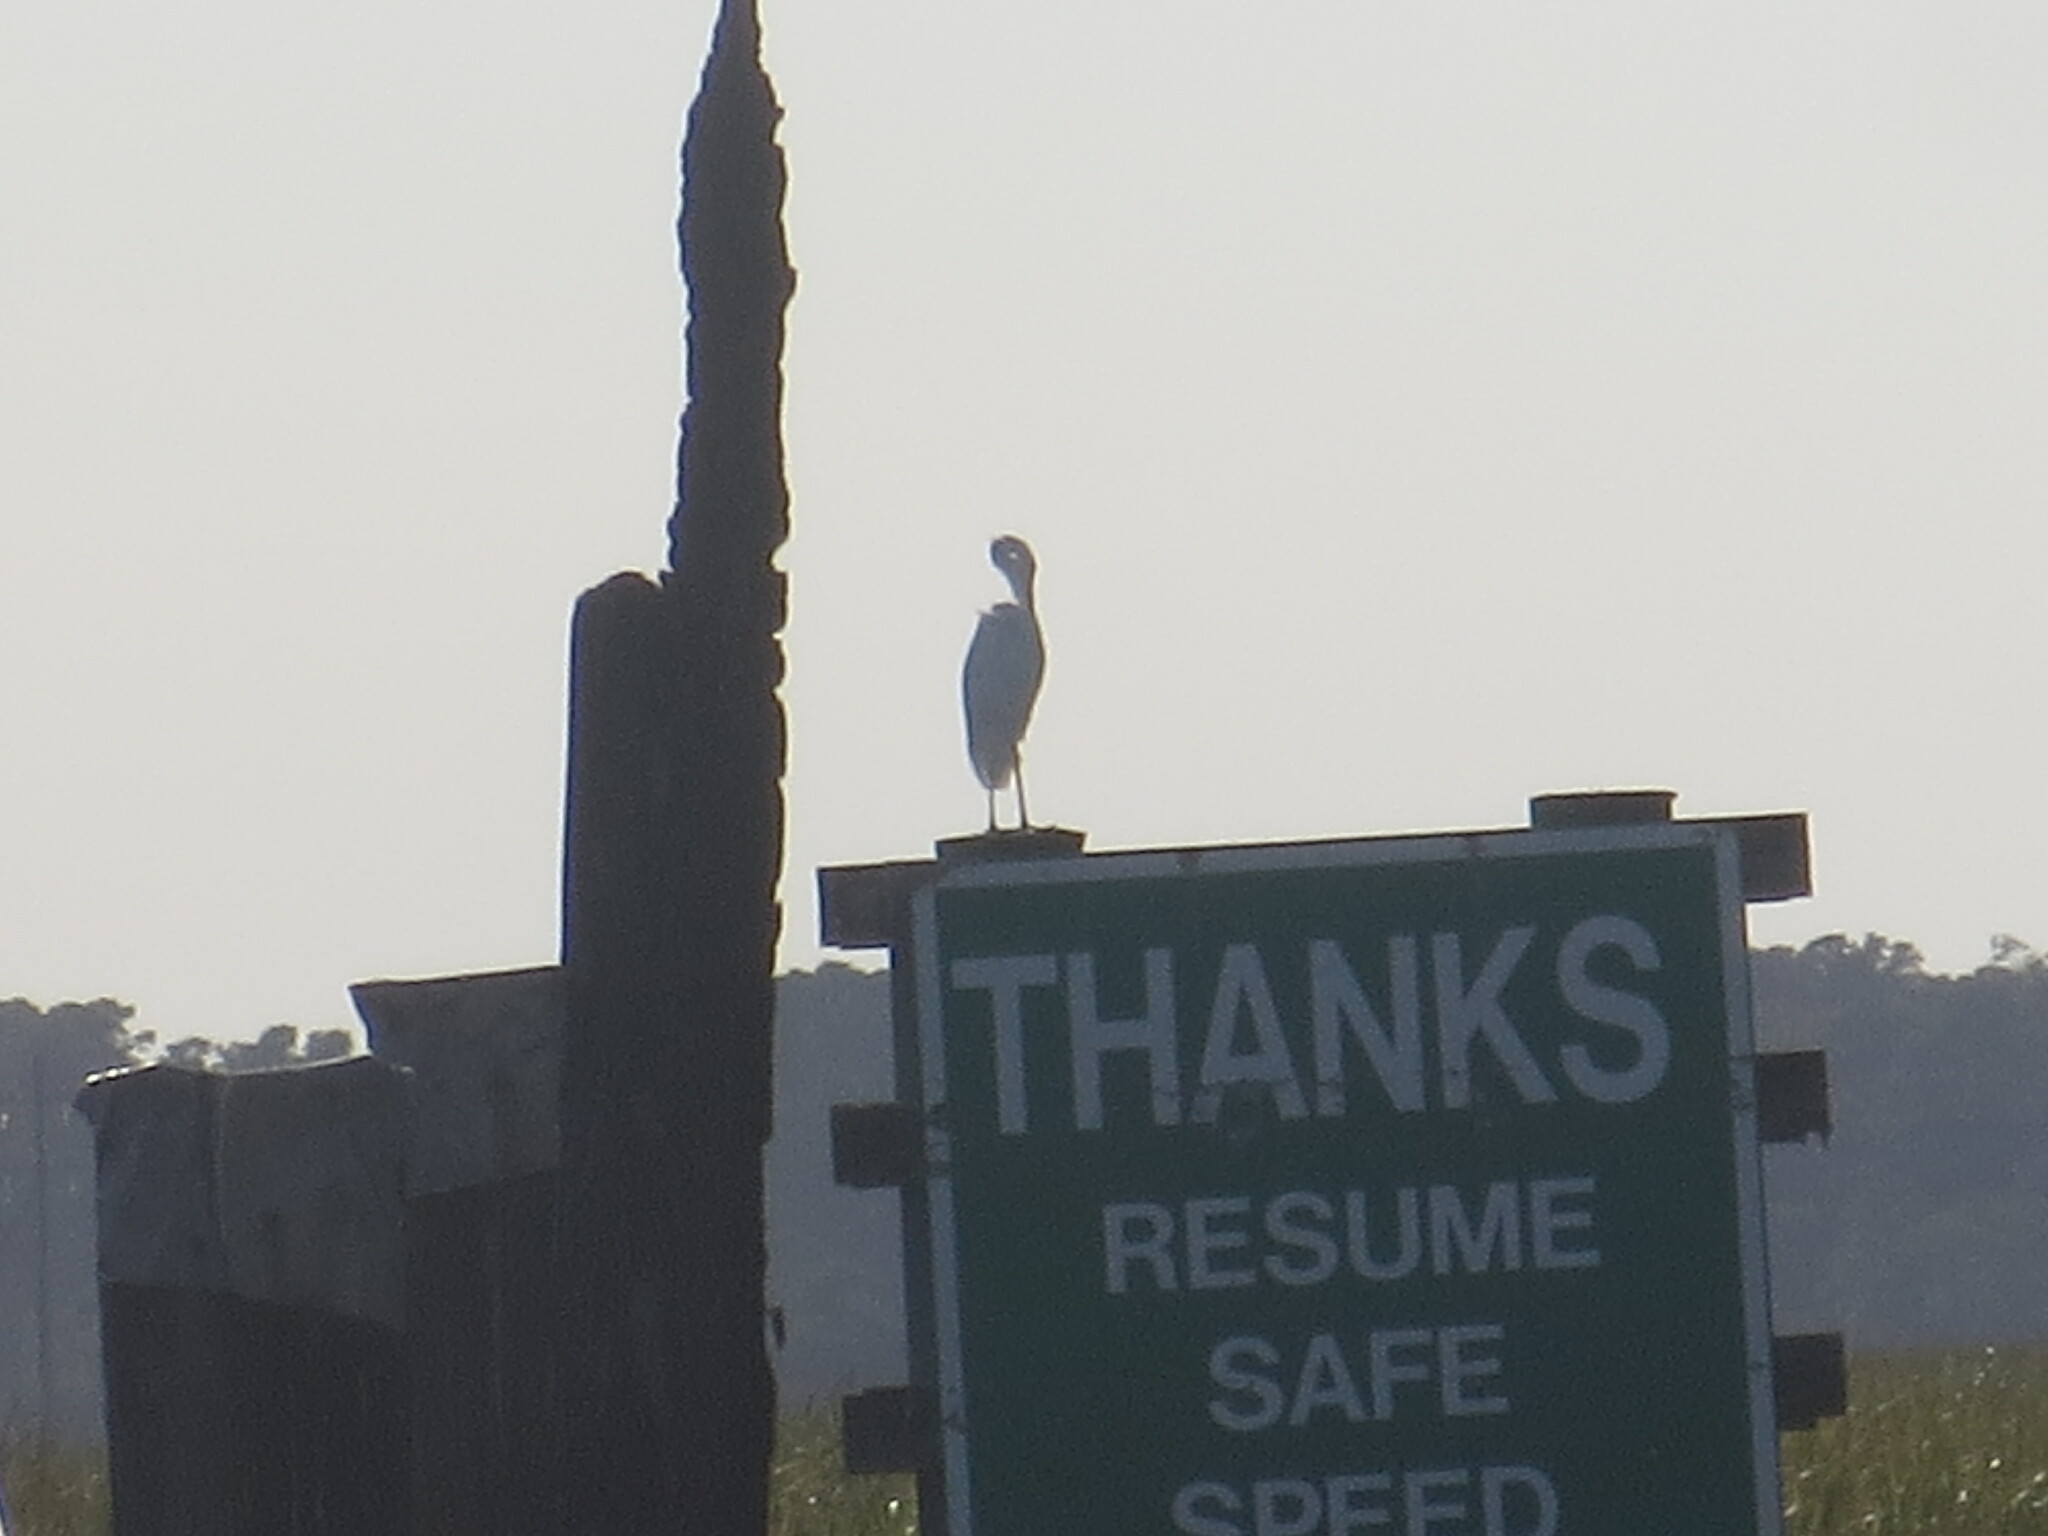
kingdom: Animalia
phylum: Chordata
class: Aves
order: Pelecaniformes
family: Ardeidae
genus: Ardea
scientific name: Ardea alba
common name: Great egret
